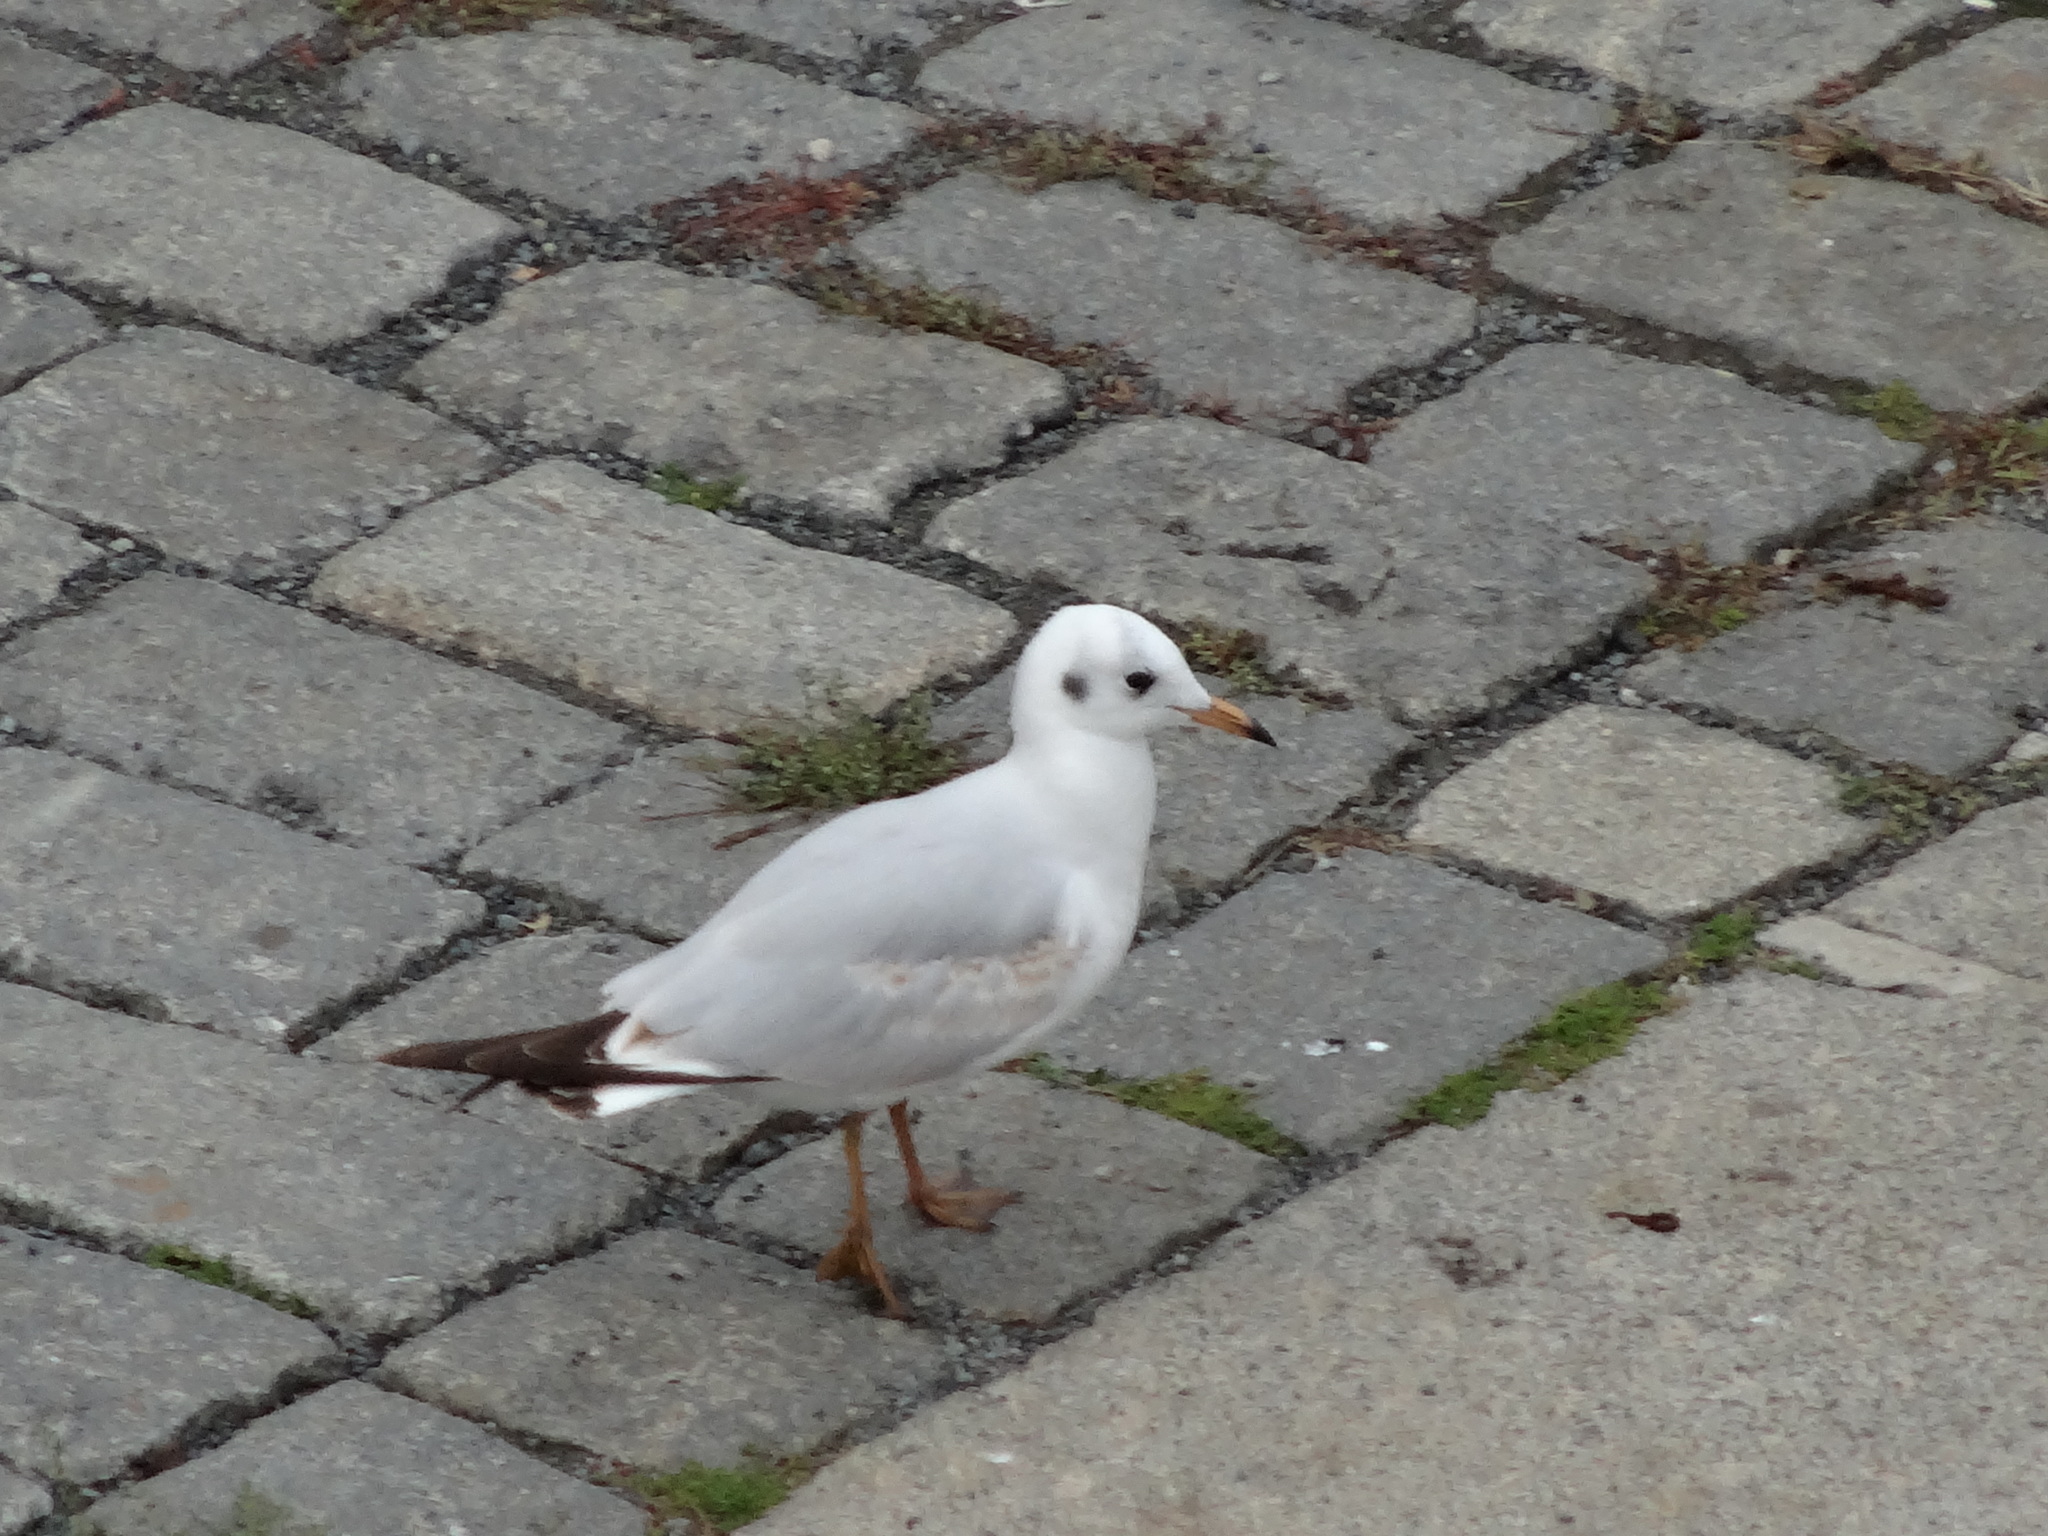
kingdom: Animalia
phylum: Chordata
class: Aves
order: Charadriiformes
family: Laridae
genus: Chroicocephalus
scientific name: Chroicocephalus ridibundus
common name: Black-headed gull
